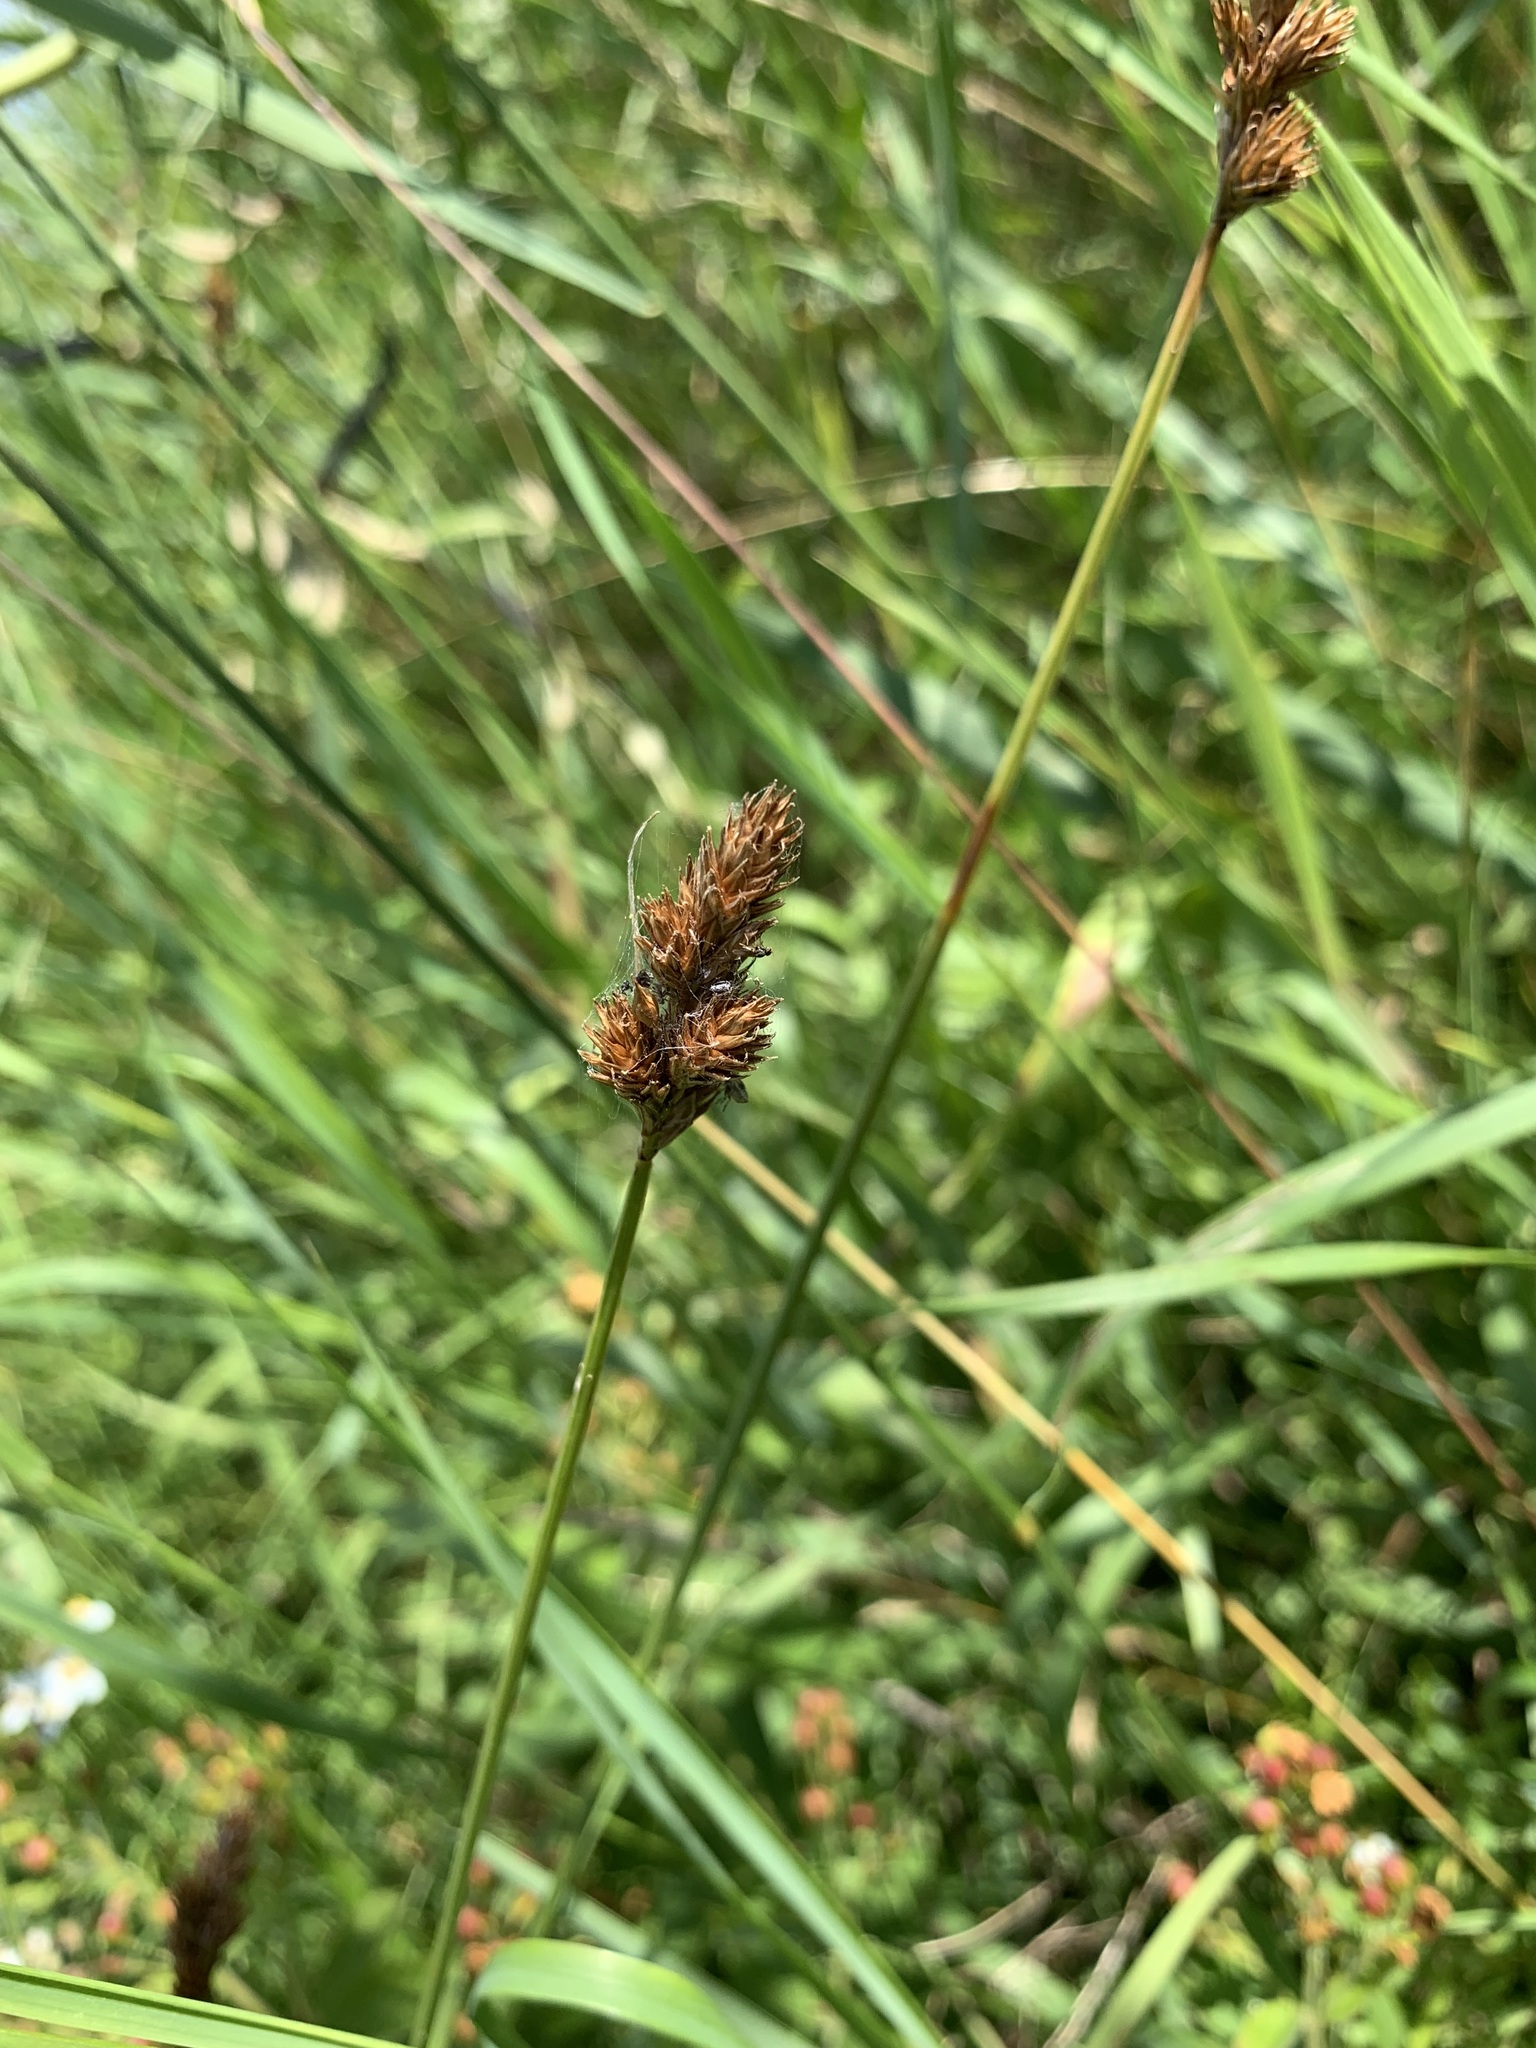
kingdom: Plantae
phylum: Tracheophyta
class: Liliopsida
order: Poales
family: Cyperaceae
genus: Carex
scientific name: Carex leporina
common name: Oval sedge
